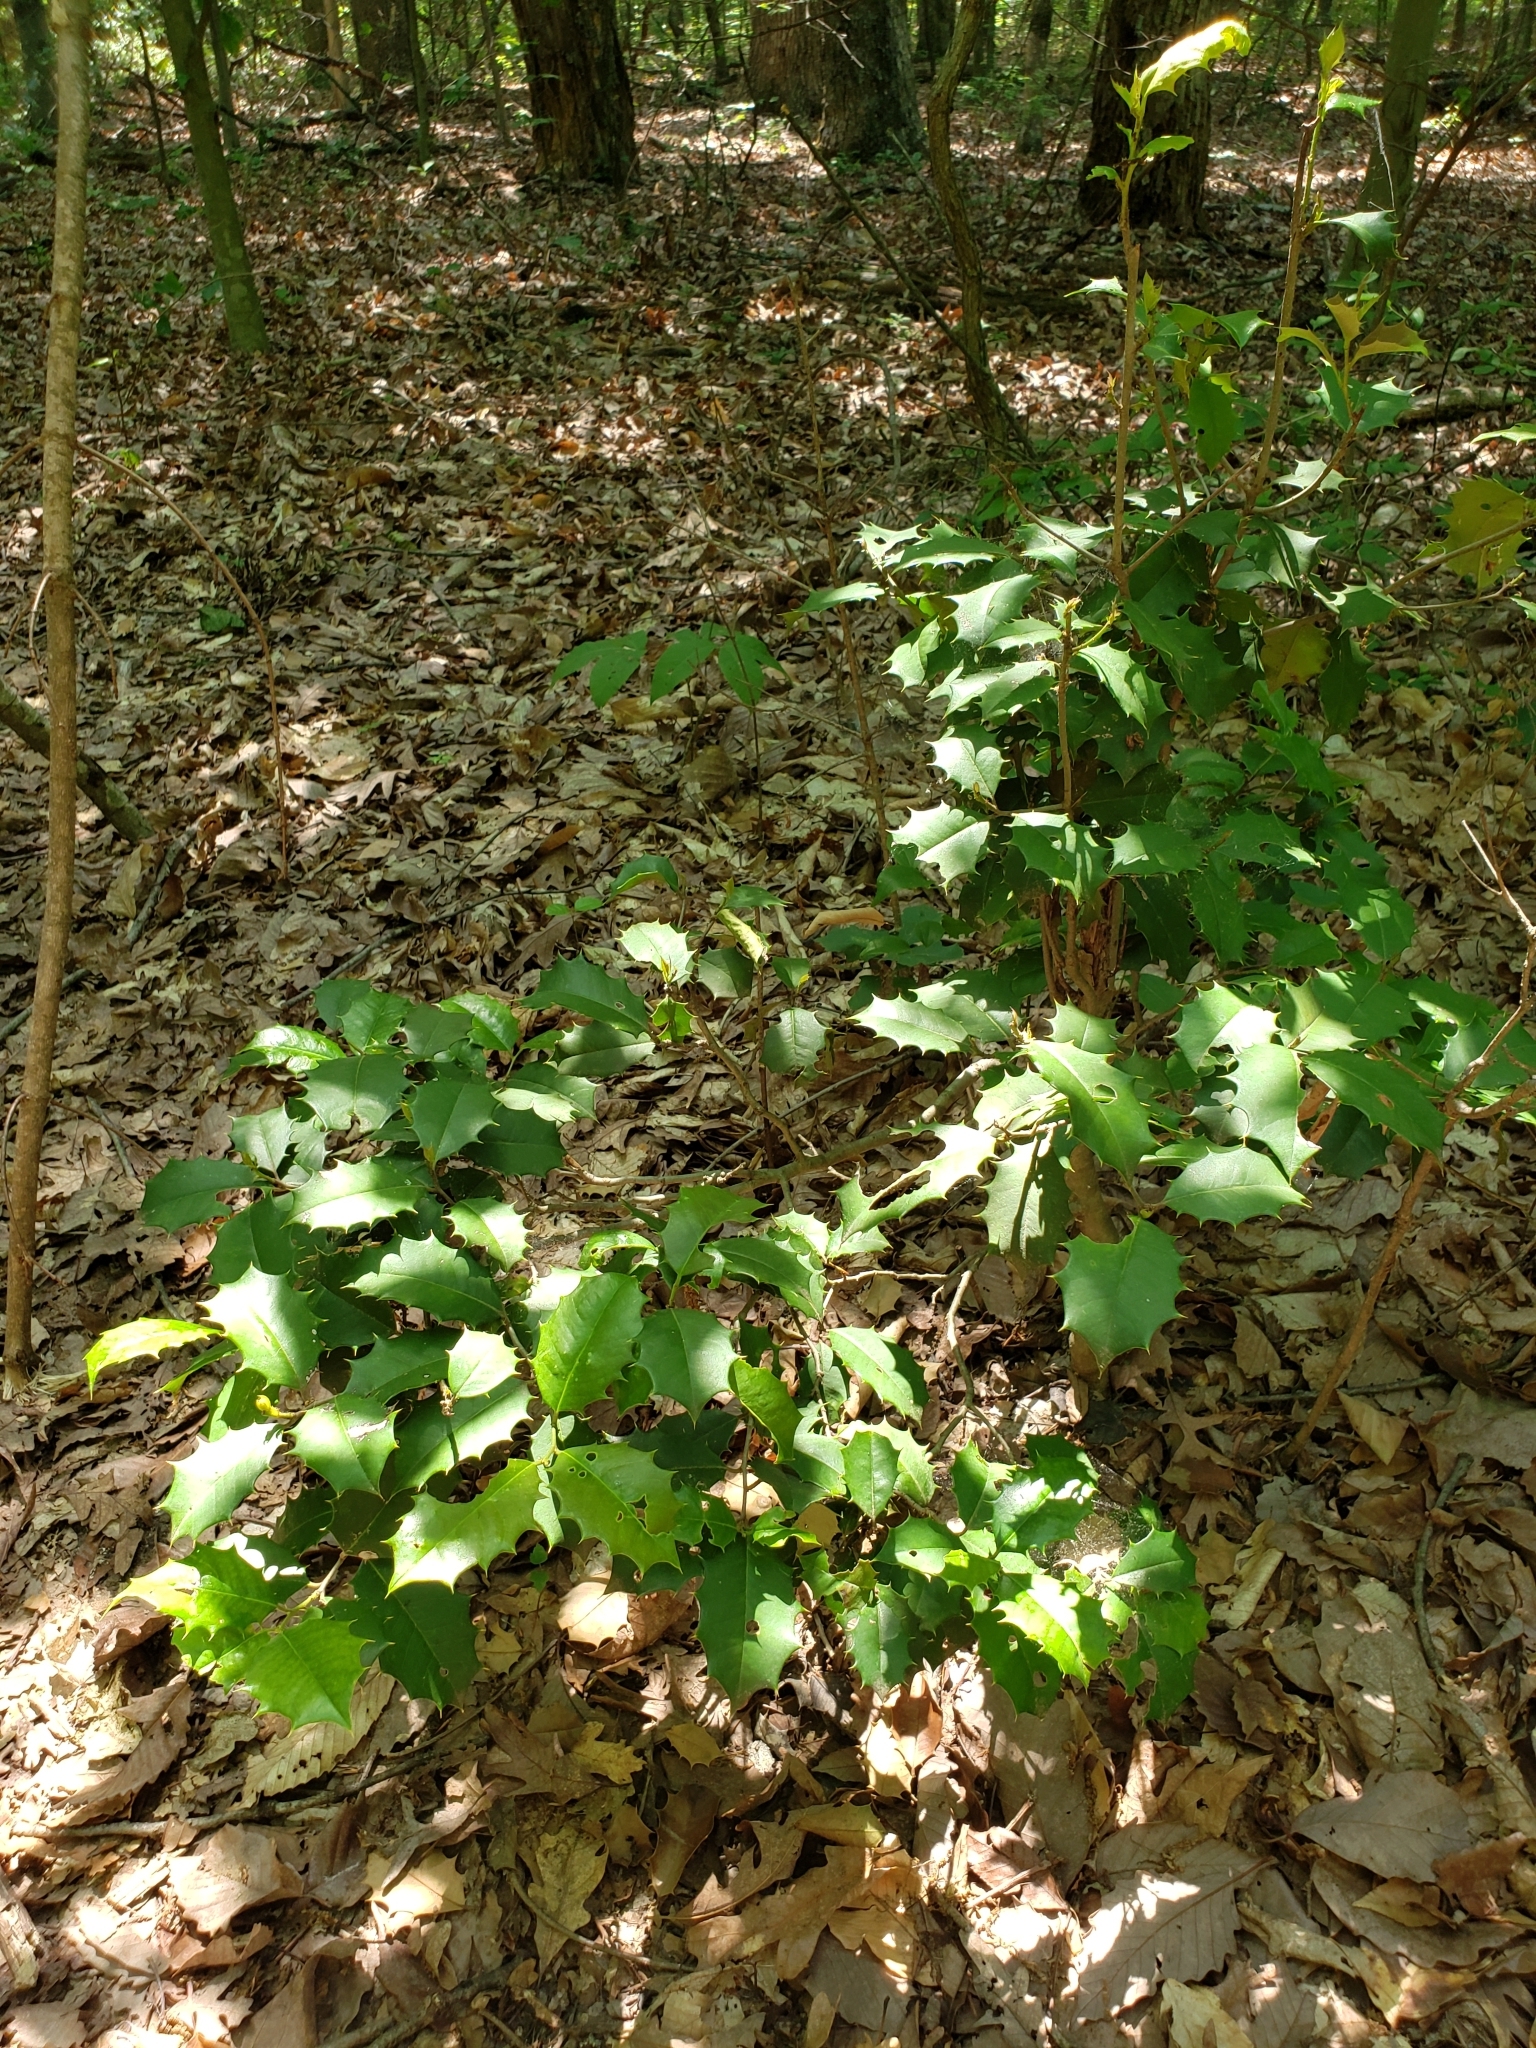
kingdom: Plantae
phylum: Tracheophyta
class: Magnoliopsida
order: Aquifoliales
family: Aquifoliaceae
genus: Ilex
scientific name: Ilex opaca
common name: American holly
